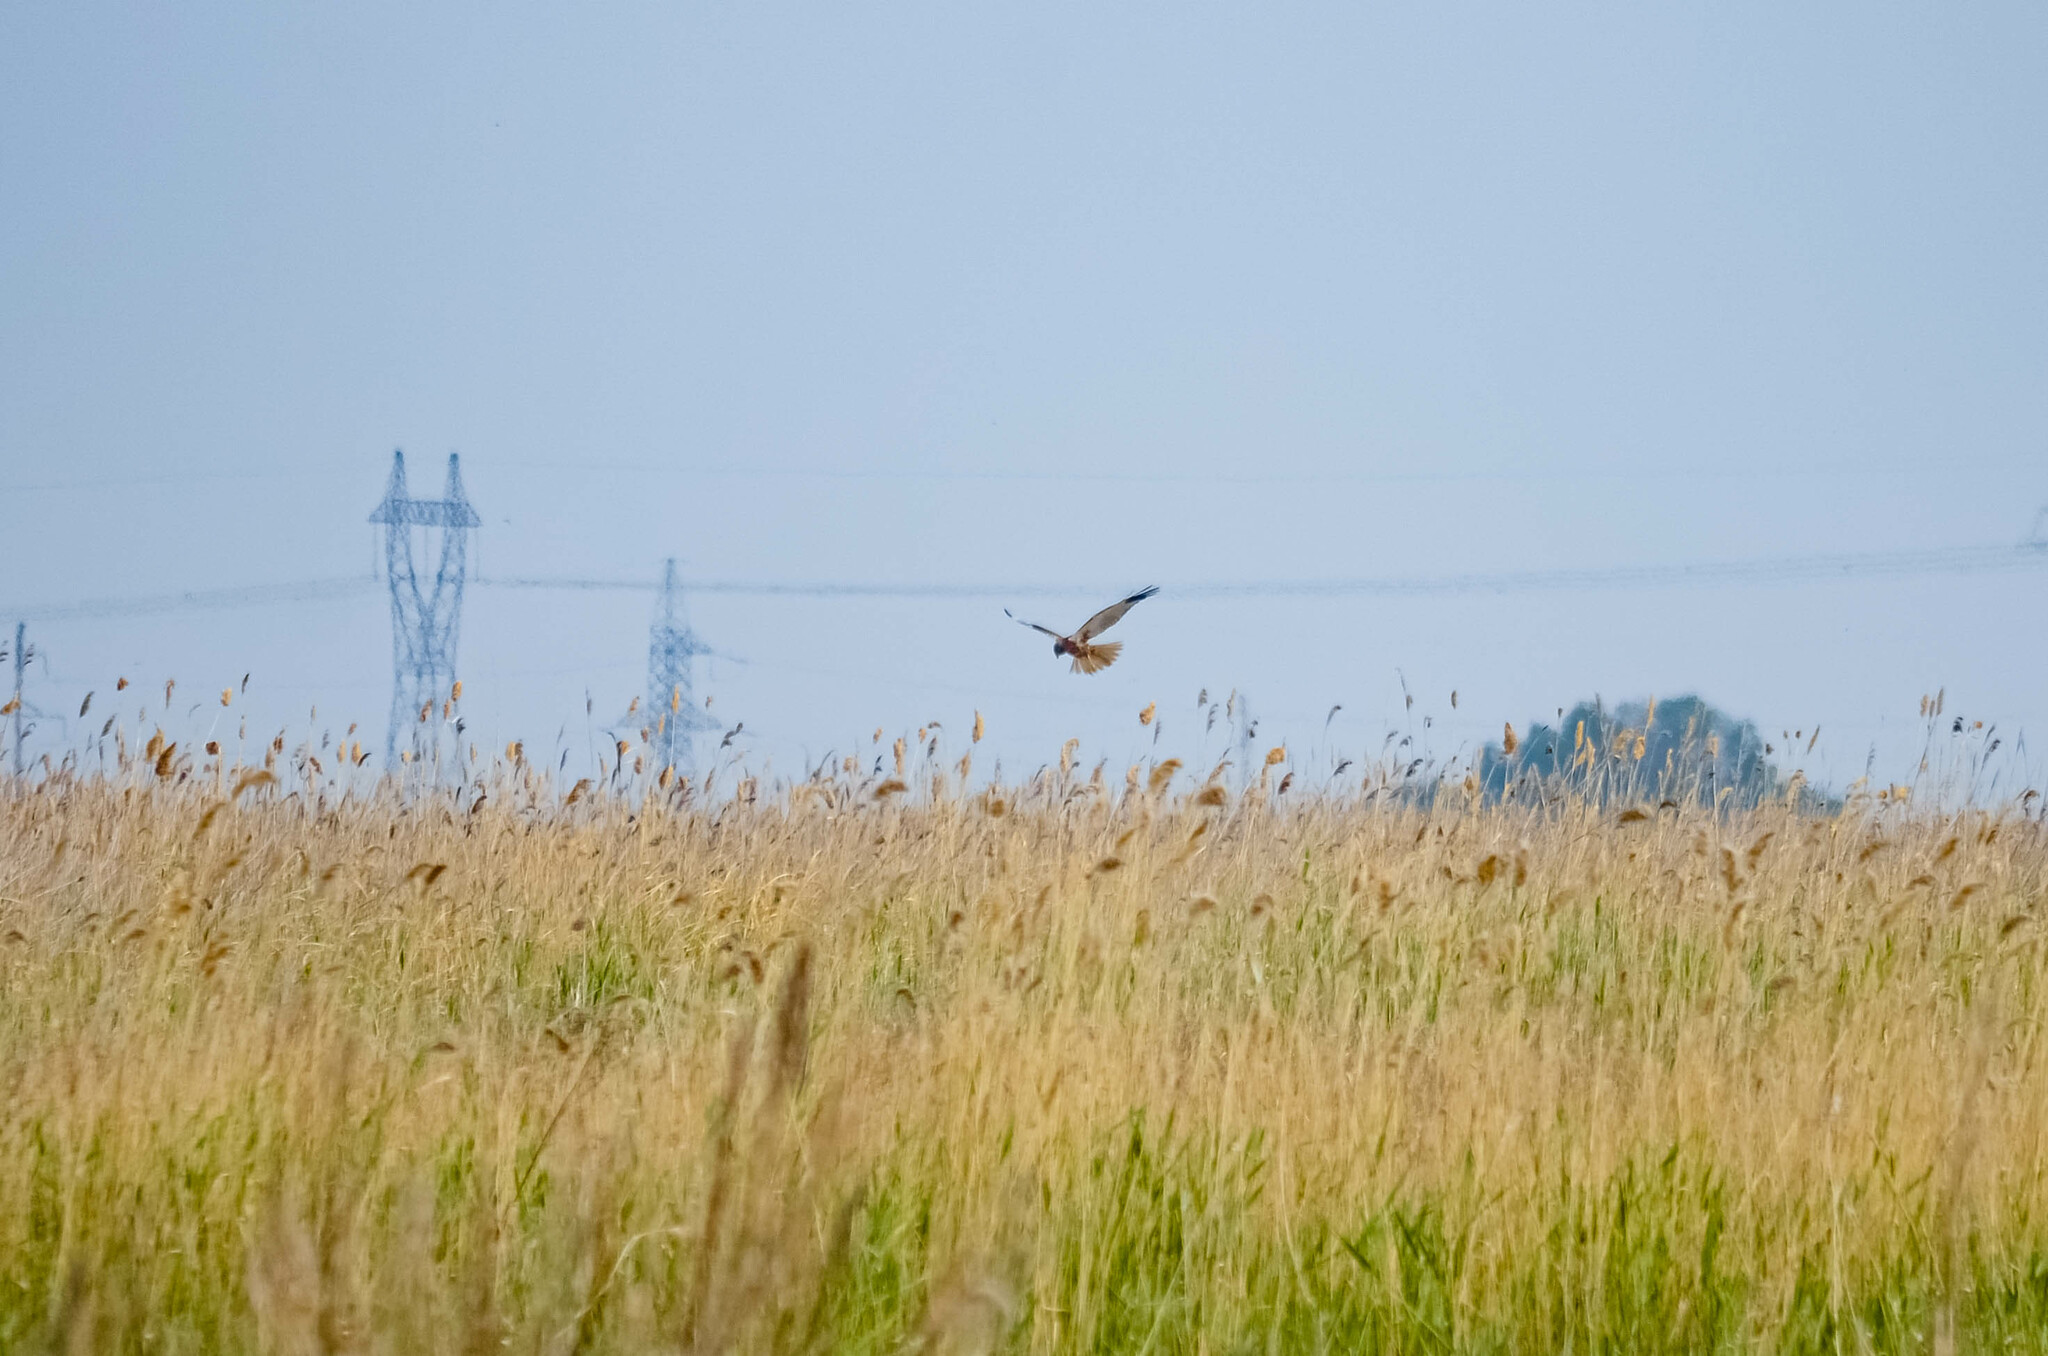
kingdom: Animalia
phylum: Chordata
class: Aves
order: Accipitriformes
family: Accipitridae
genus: Circus
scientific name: Circus aeruginosus
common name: Western marsh harrier
